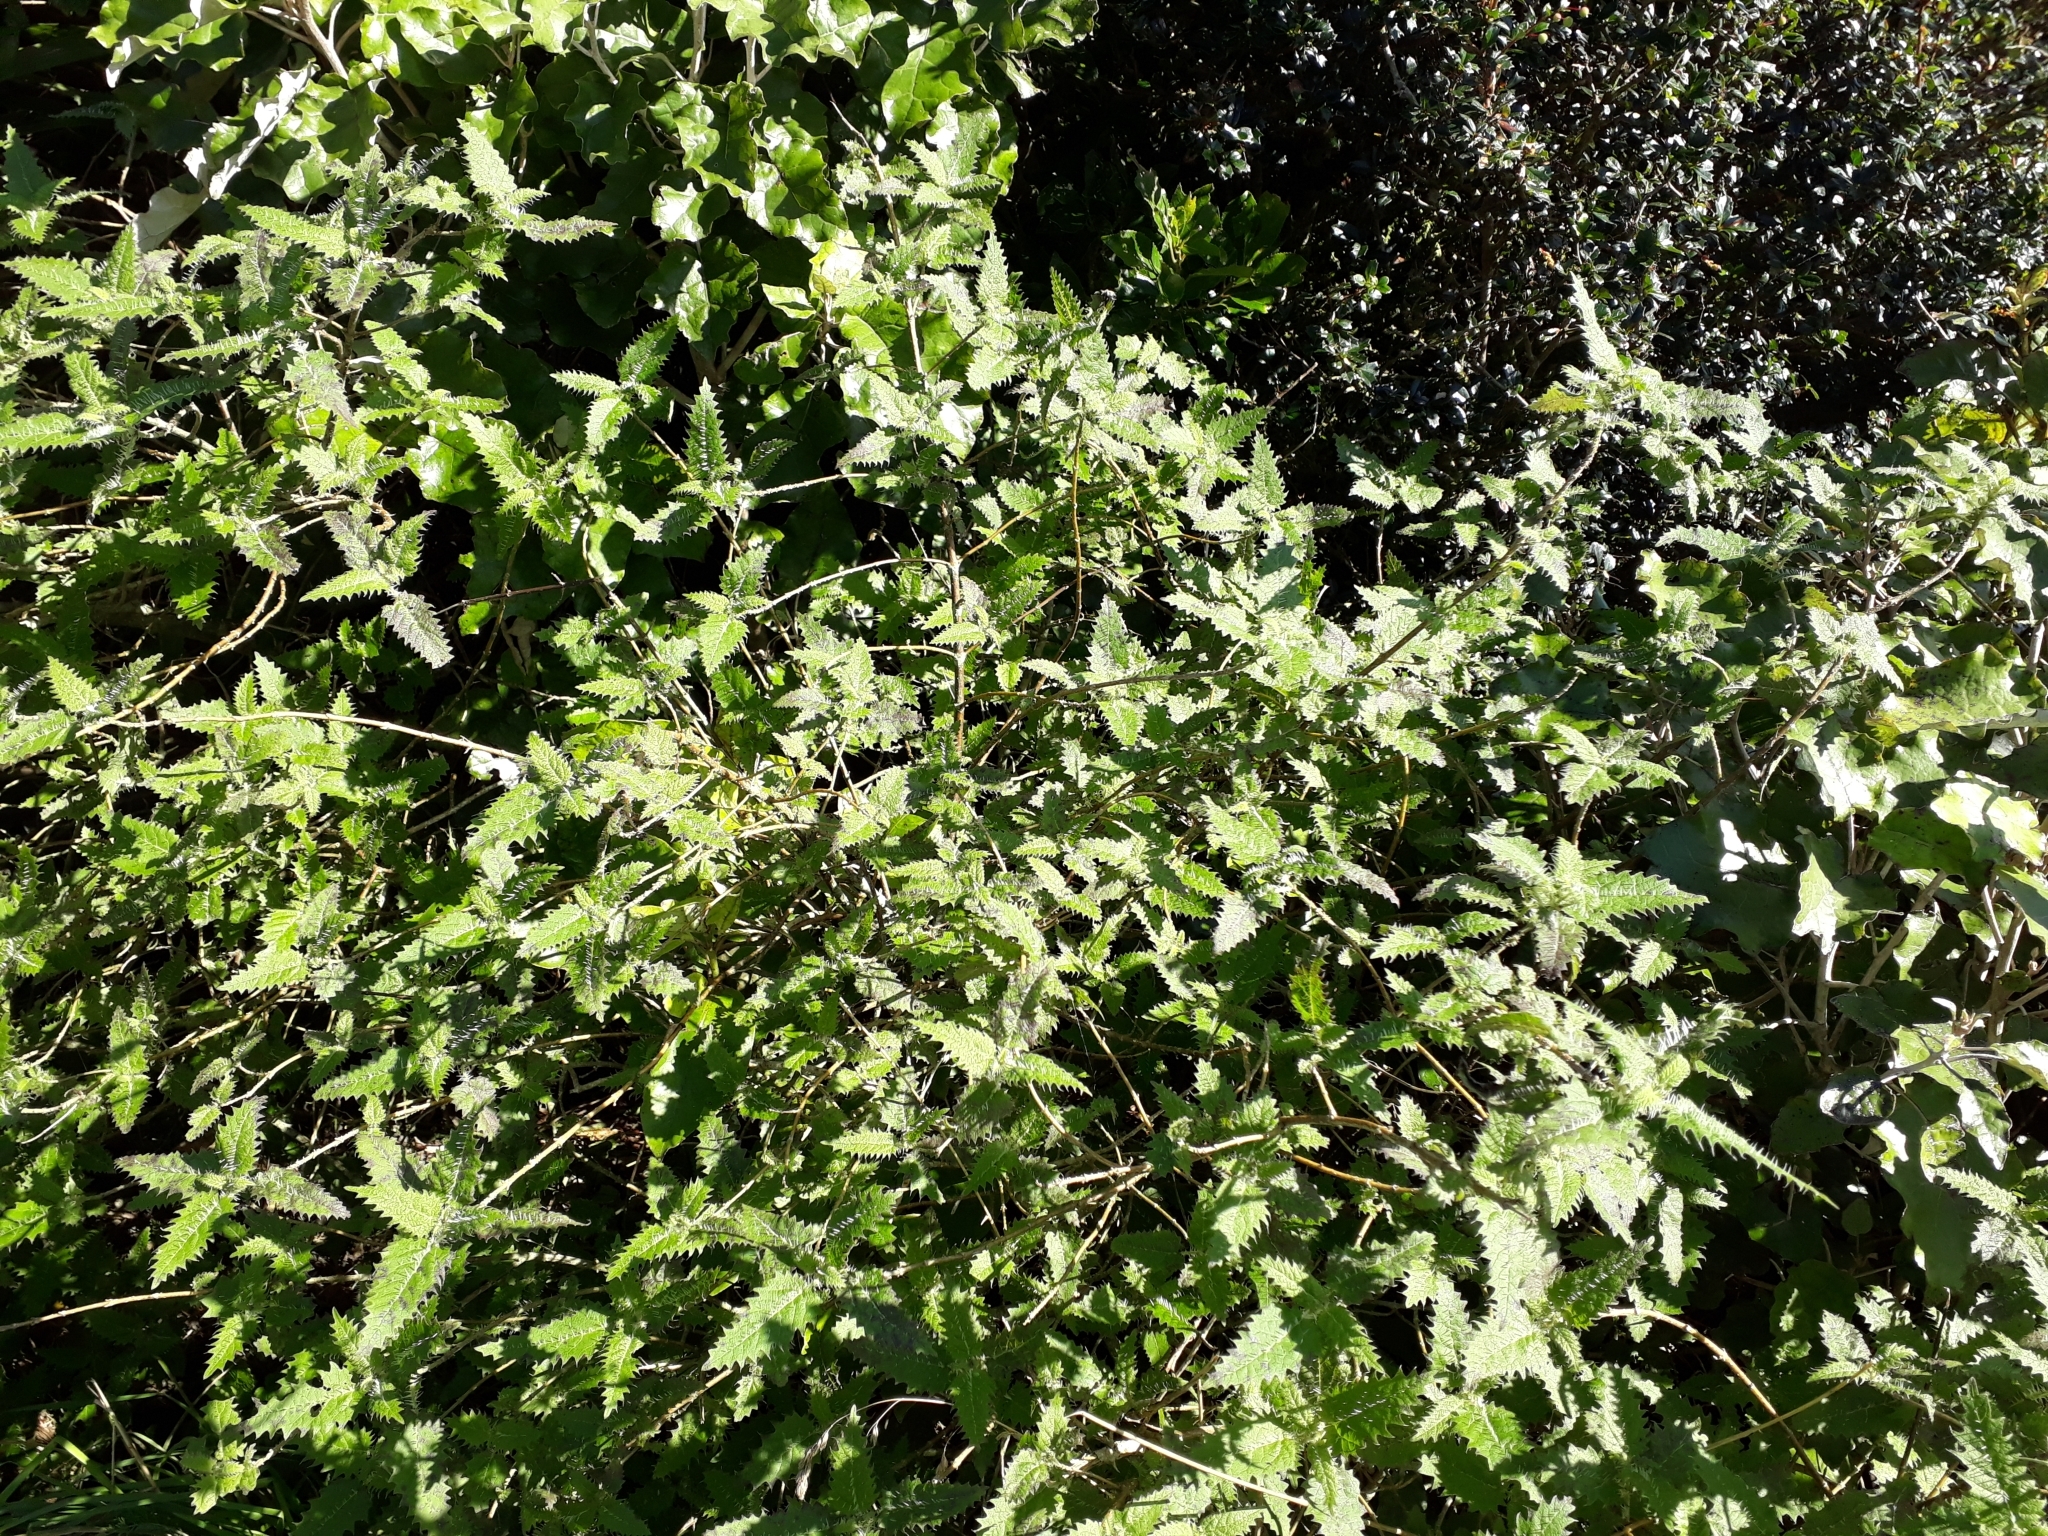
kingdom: Plantae
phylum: Tracheophyta
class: Magnoliopsida
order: Rosales
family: Urticaceae
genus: Urtica
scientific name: Urtica ferox
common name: Tree nettle
